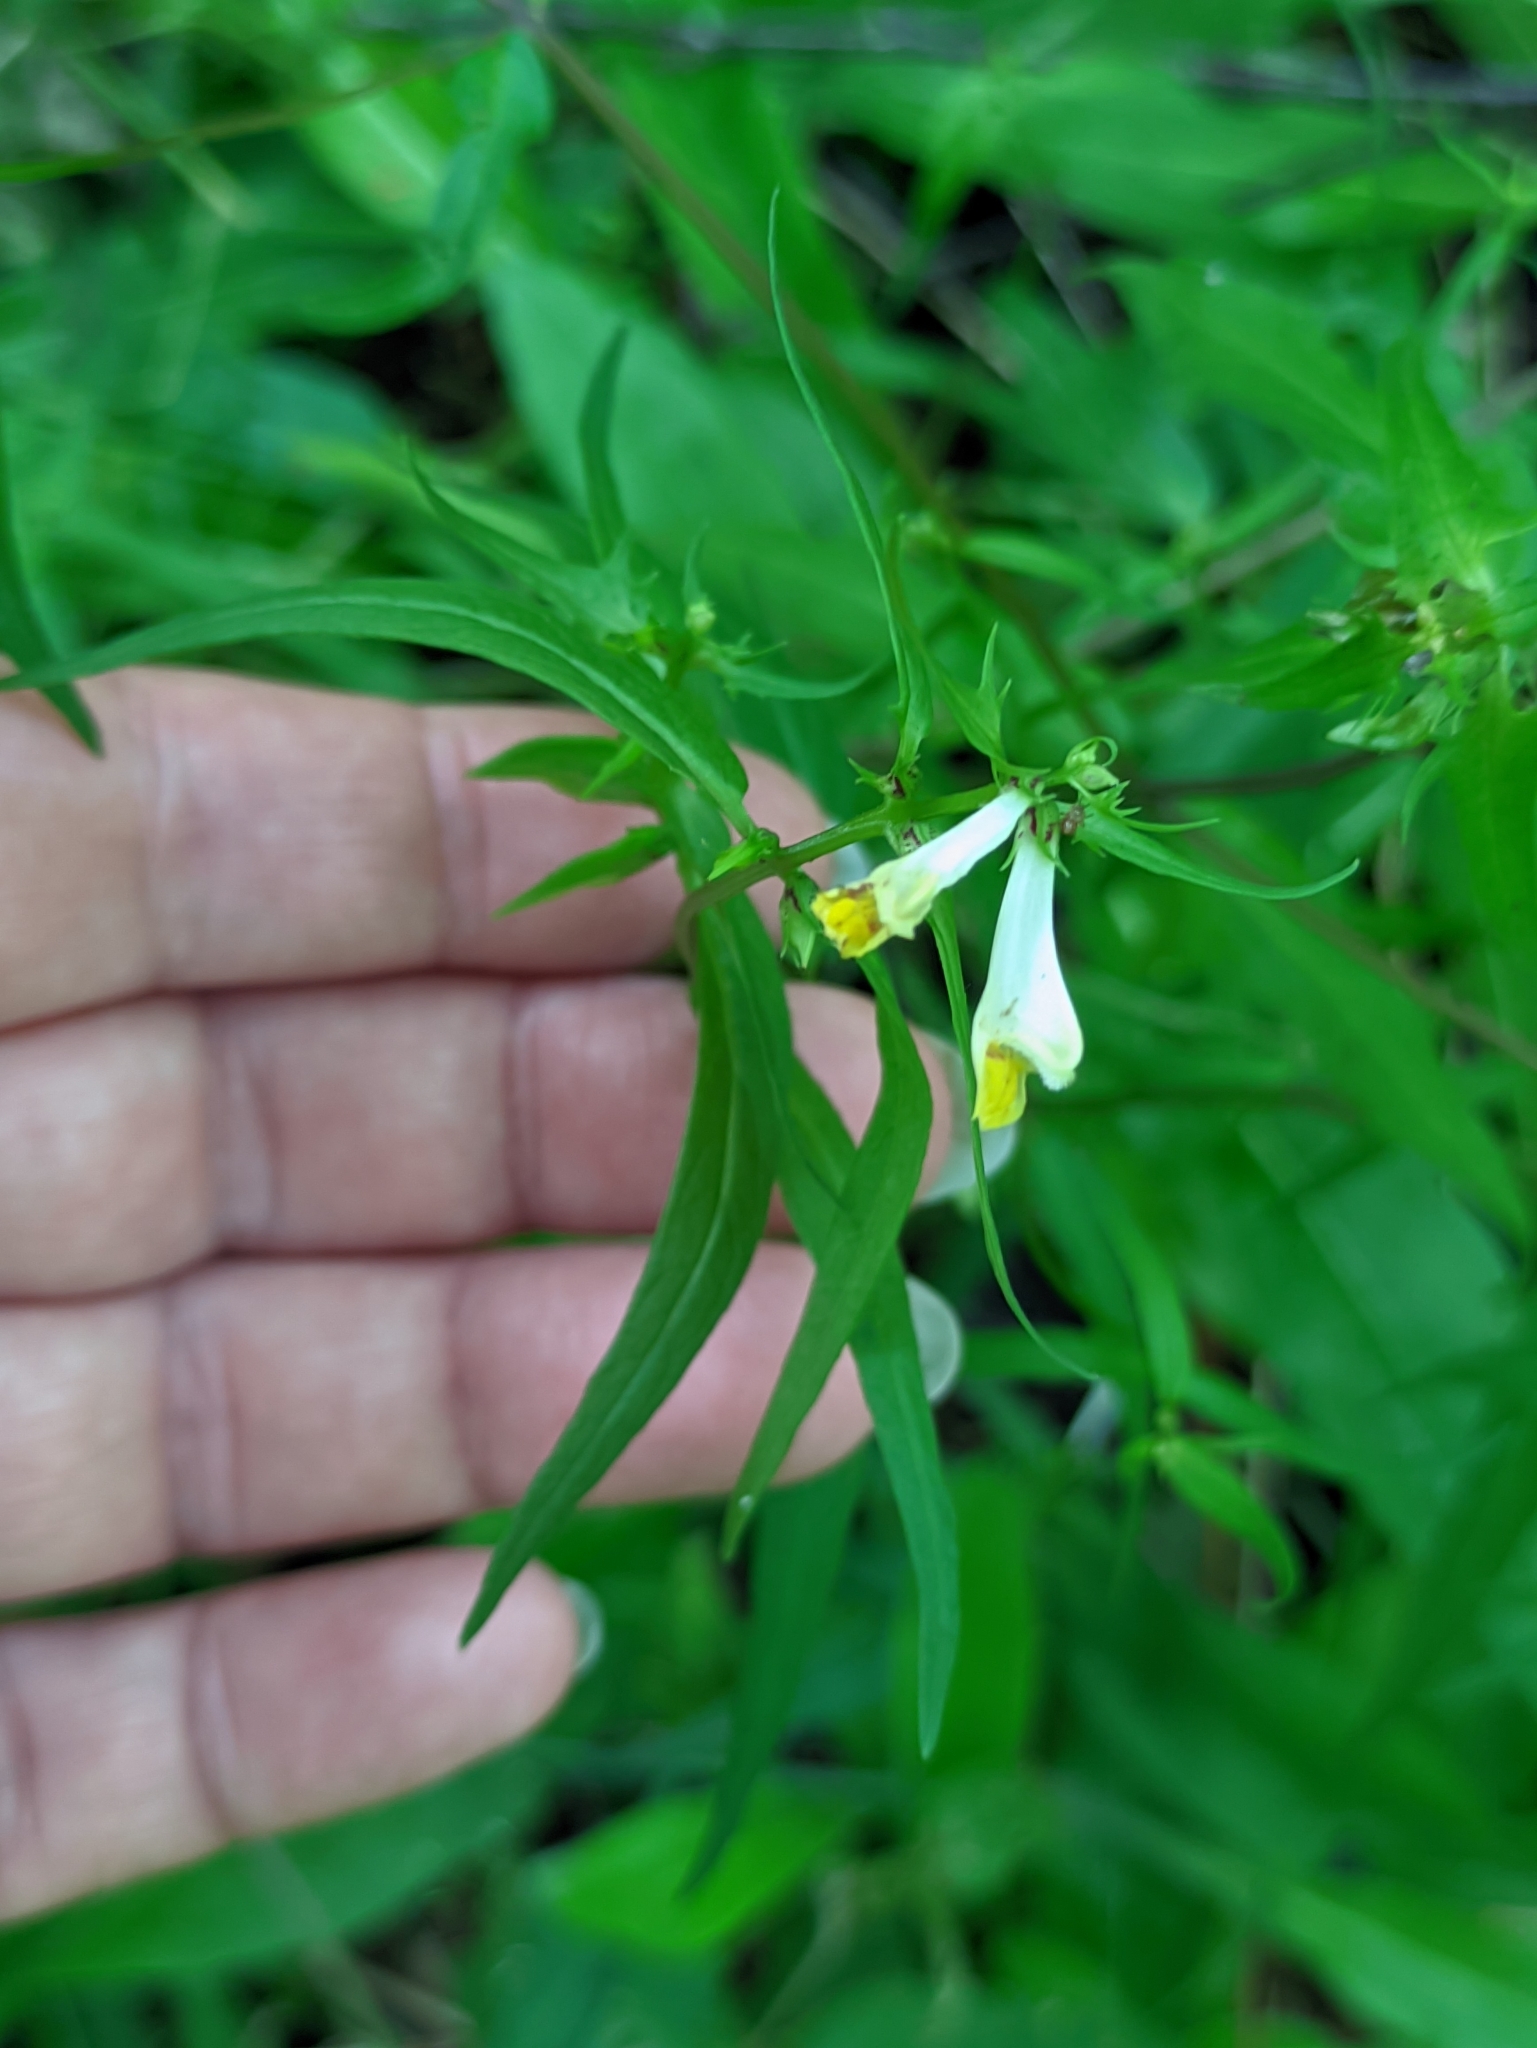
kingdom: Plantae
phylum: Tracheophyta
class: Magnoliopsida
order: Lamiales
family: Orobanchaceae
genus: Melampyrum
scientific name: Melampyrum pratense
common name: Common cow-wheat
